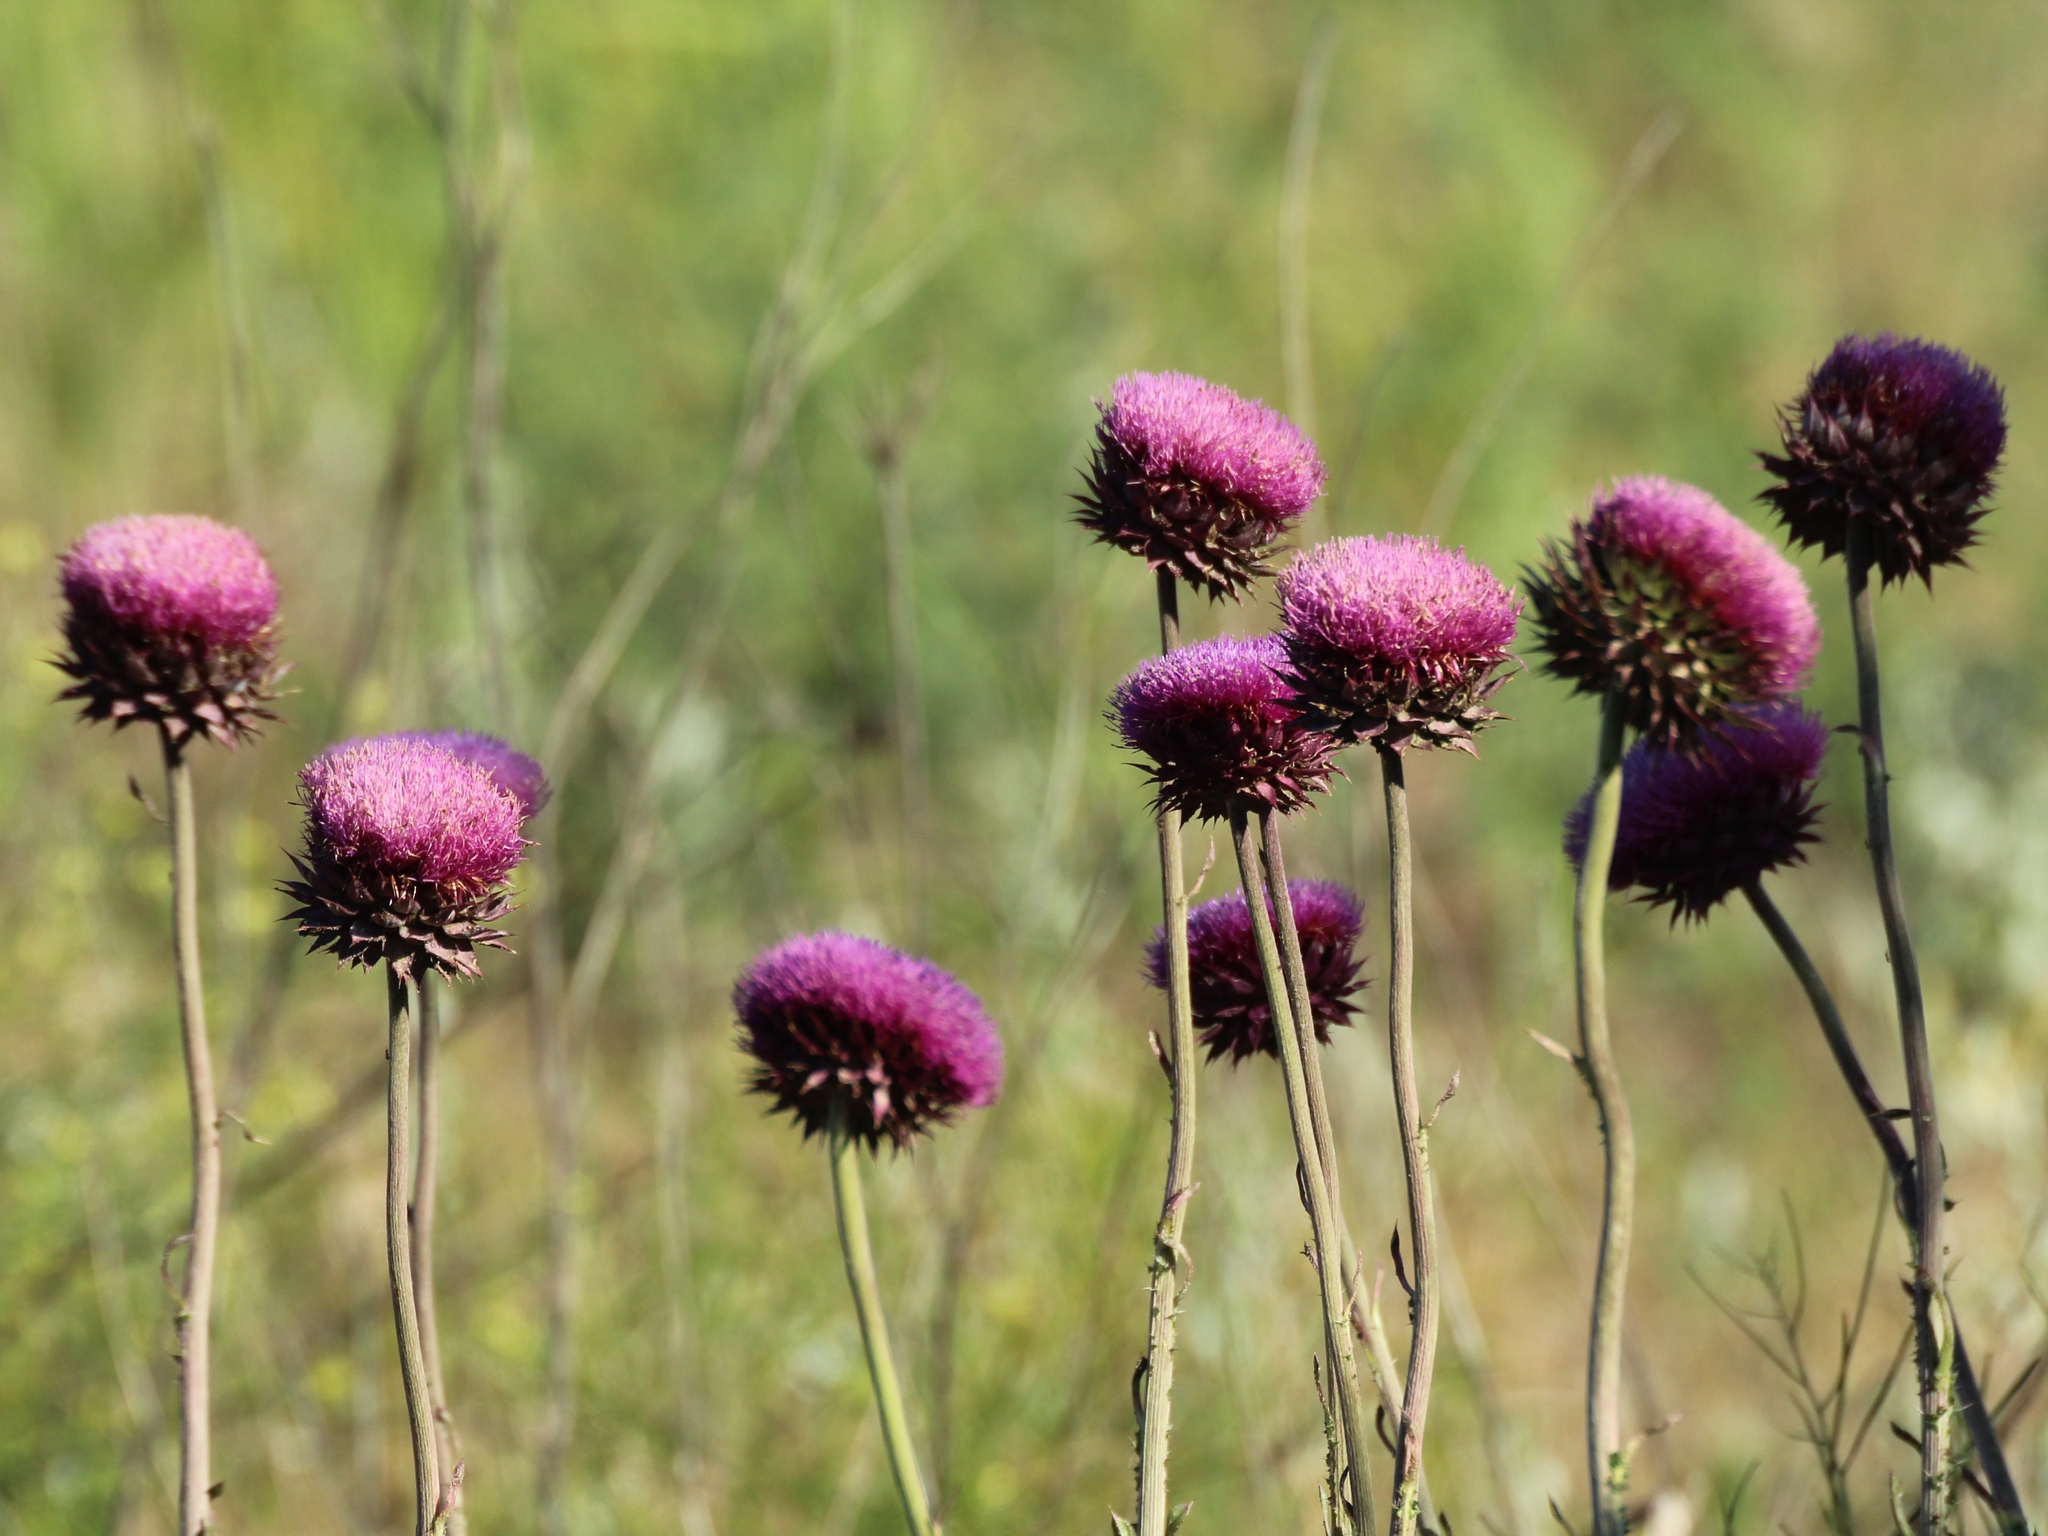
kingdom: Plantae
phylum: Tracheophyta
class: Magnoliopsida
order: Asterales
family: Asteraceae
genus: Carduus
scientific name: Carduus nutans
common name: Musk thistle
